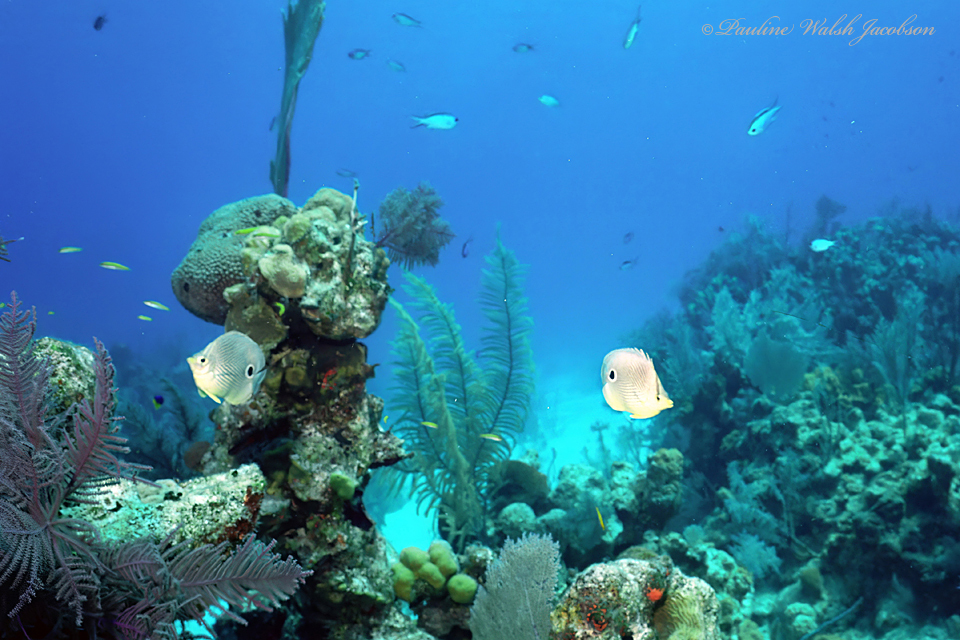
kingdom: Animalia
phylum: Chordata
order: Perciformes
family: Chaetodontidae
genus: Chaetodon
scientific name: Chaetodon capistratus
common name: Kete
